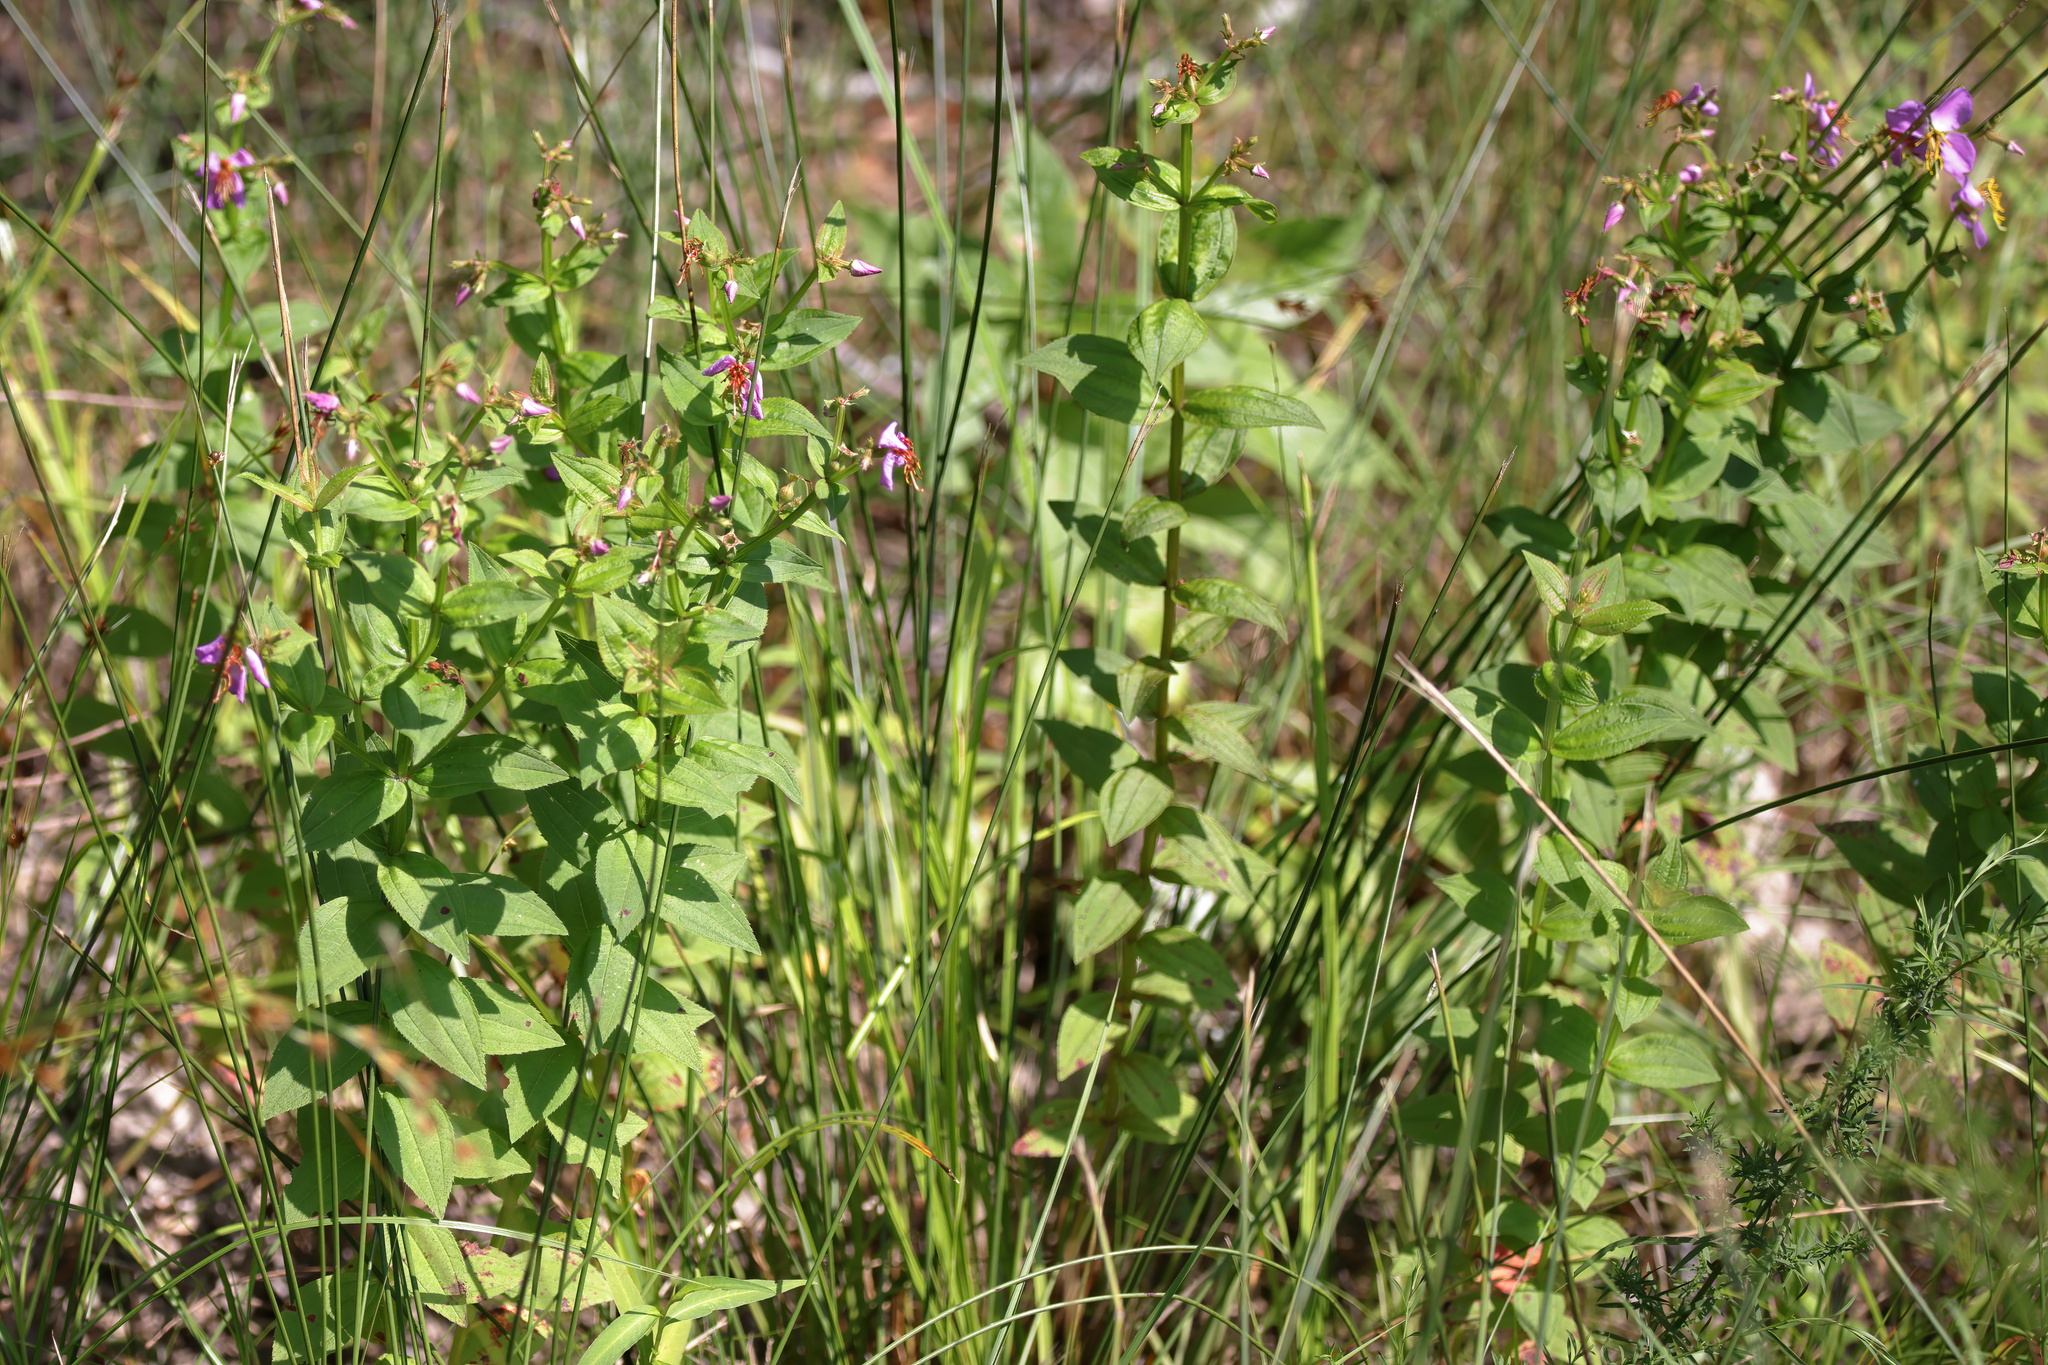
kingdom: Plantae
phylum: Tracheophyta
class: Magnoliopsida
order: Myrtales
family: Melastomataceae
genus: Rhexia
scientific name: Rhexia virginica
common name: Common meadow beauty
